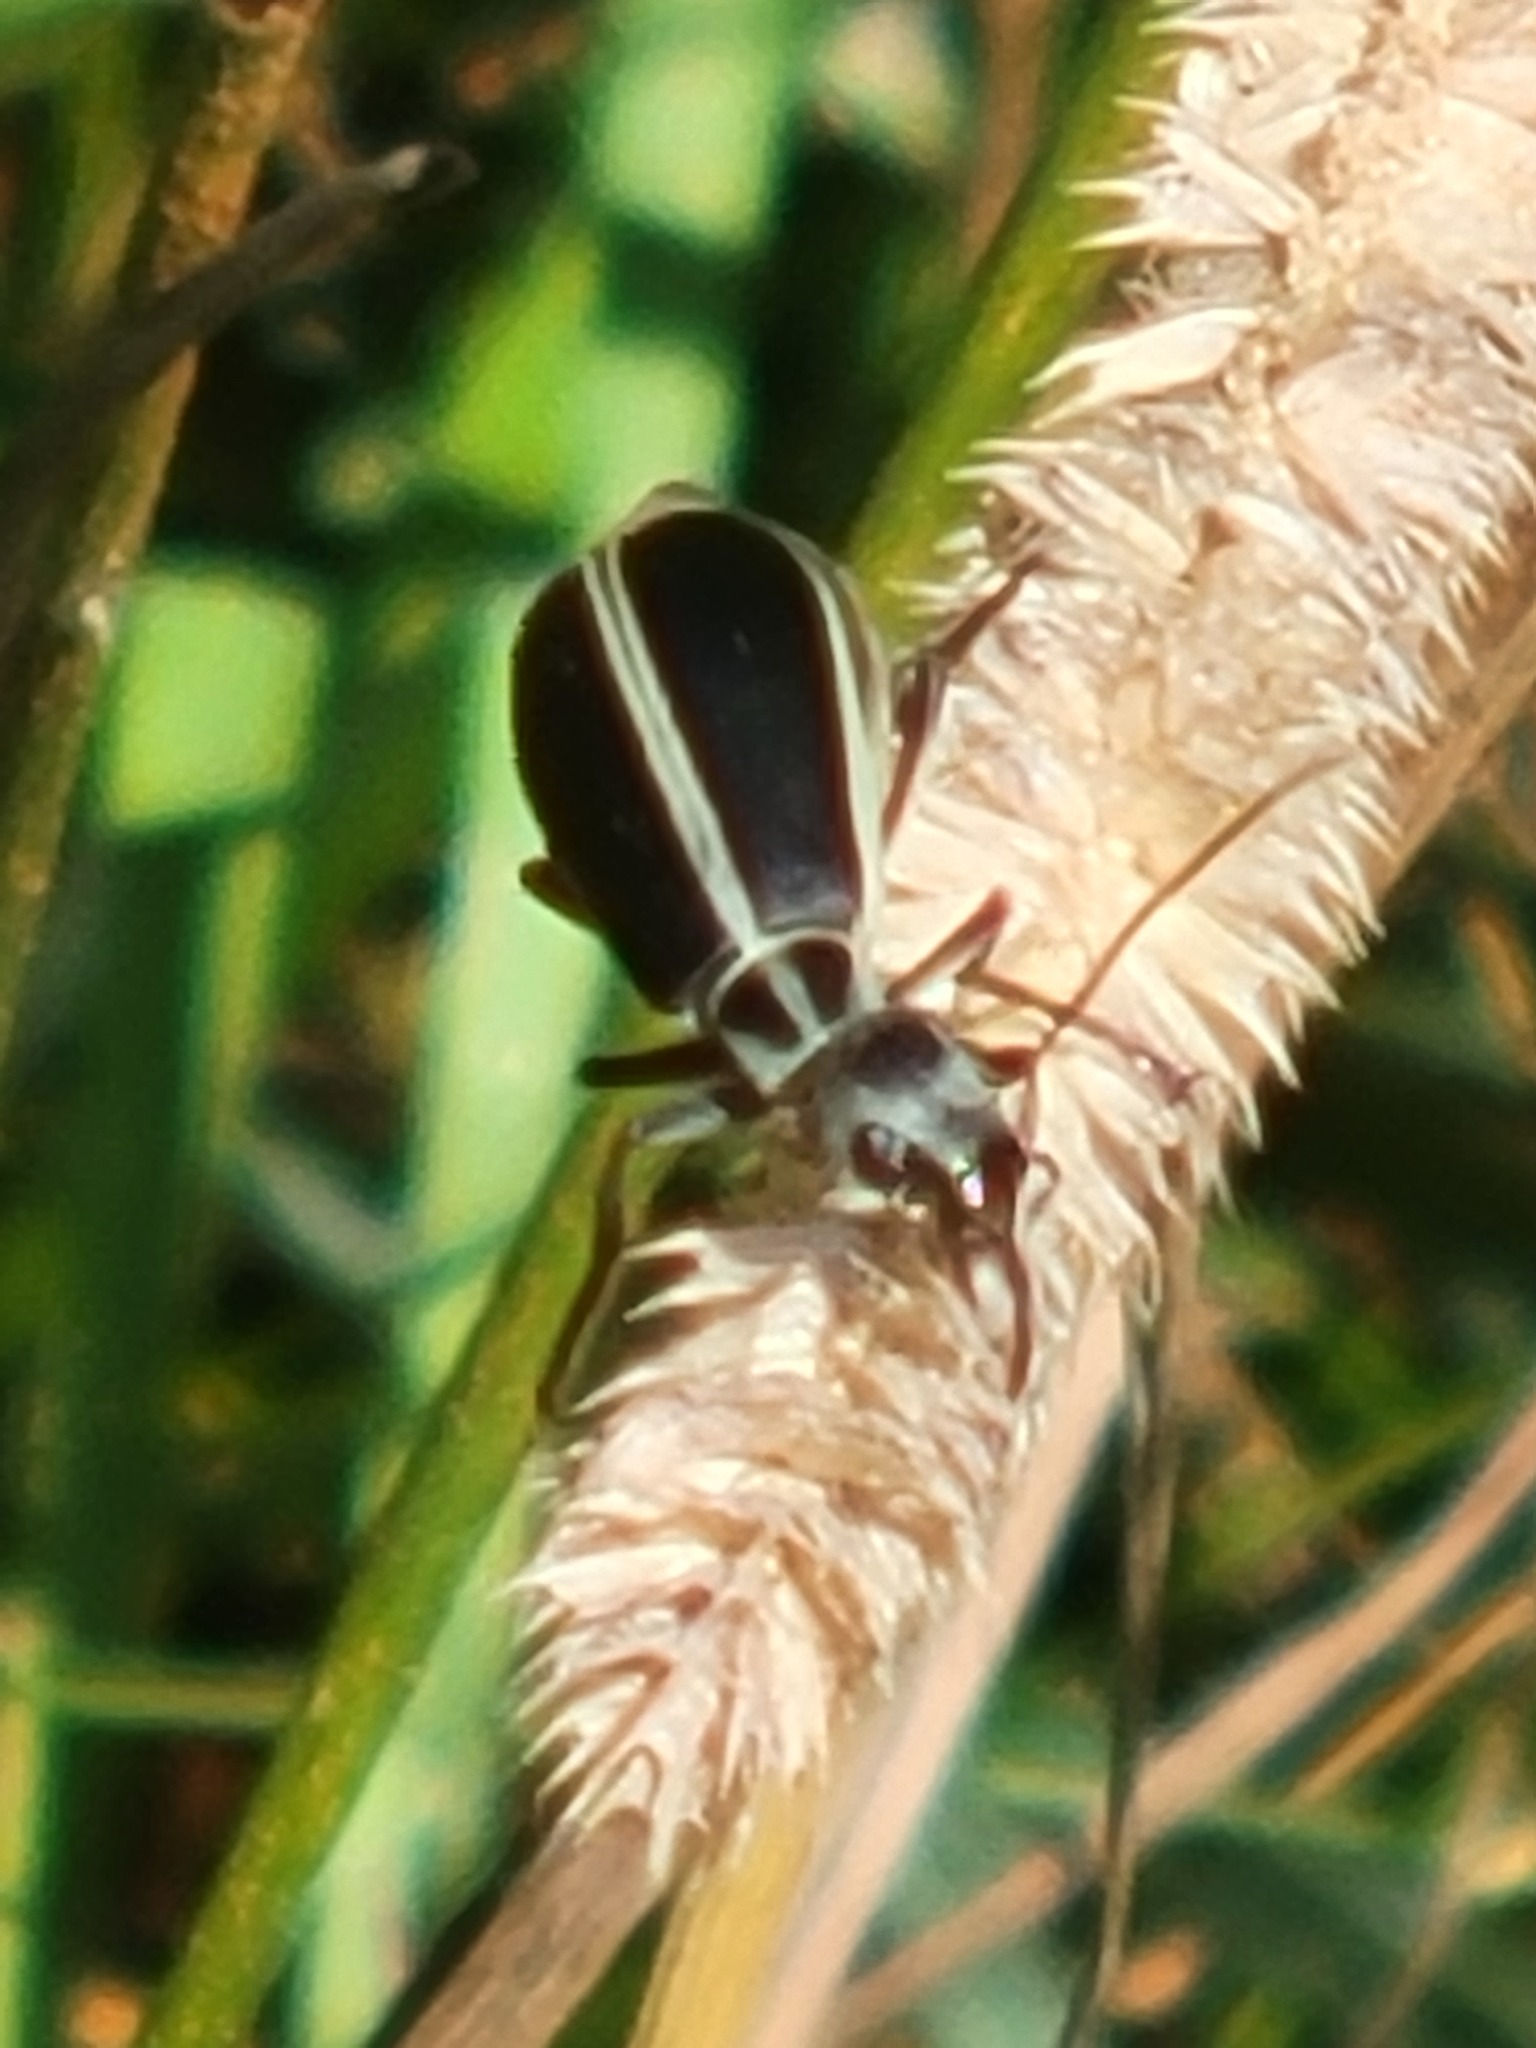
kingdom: Animalia
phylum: Arthropoda
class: Insecta
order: Coleoptera
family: Meloidae
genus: Epicauta
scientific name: Epicauta funebris
